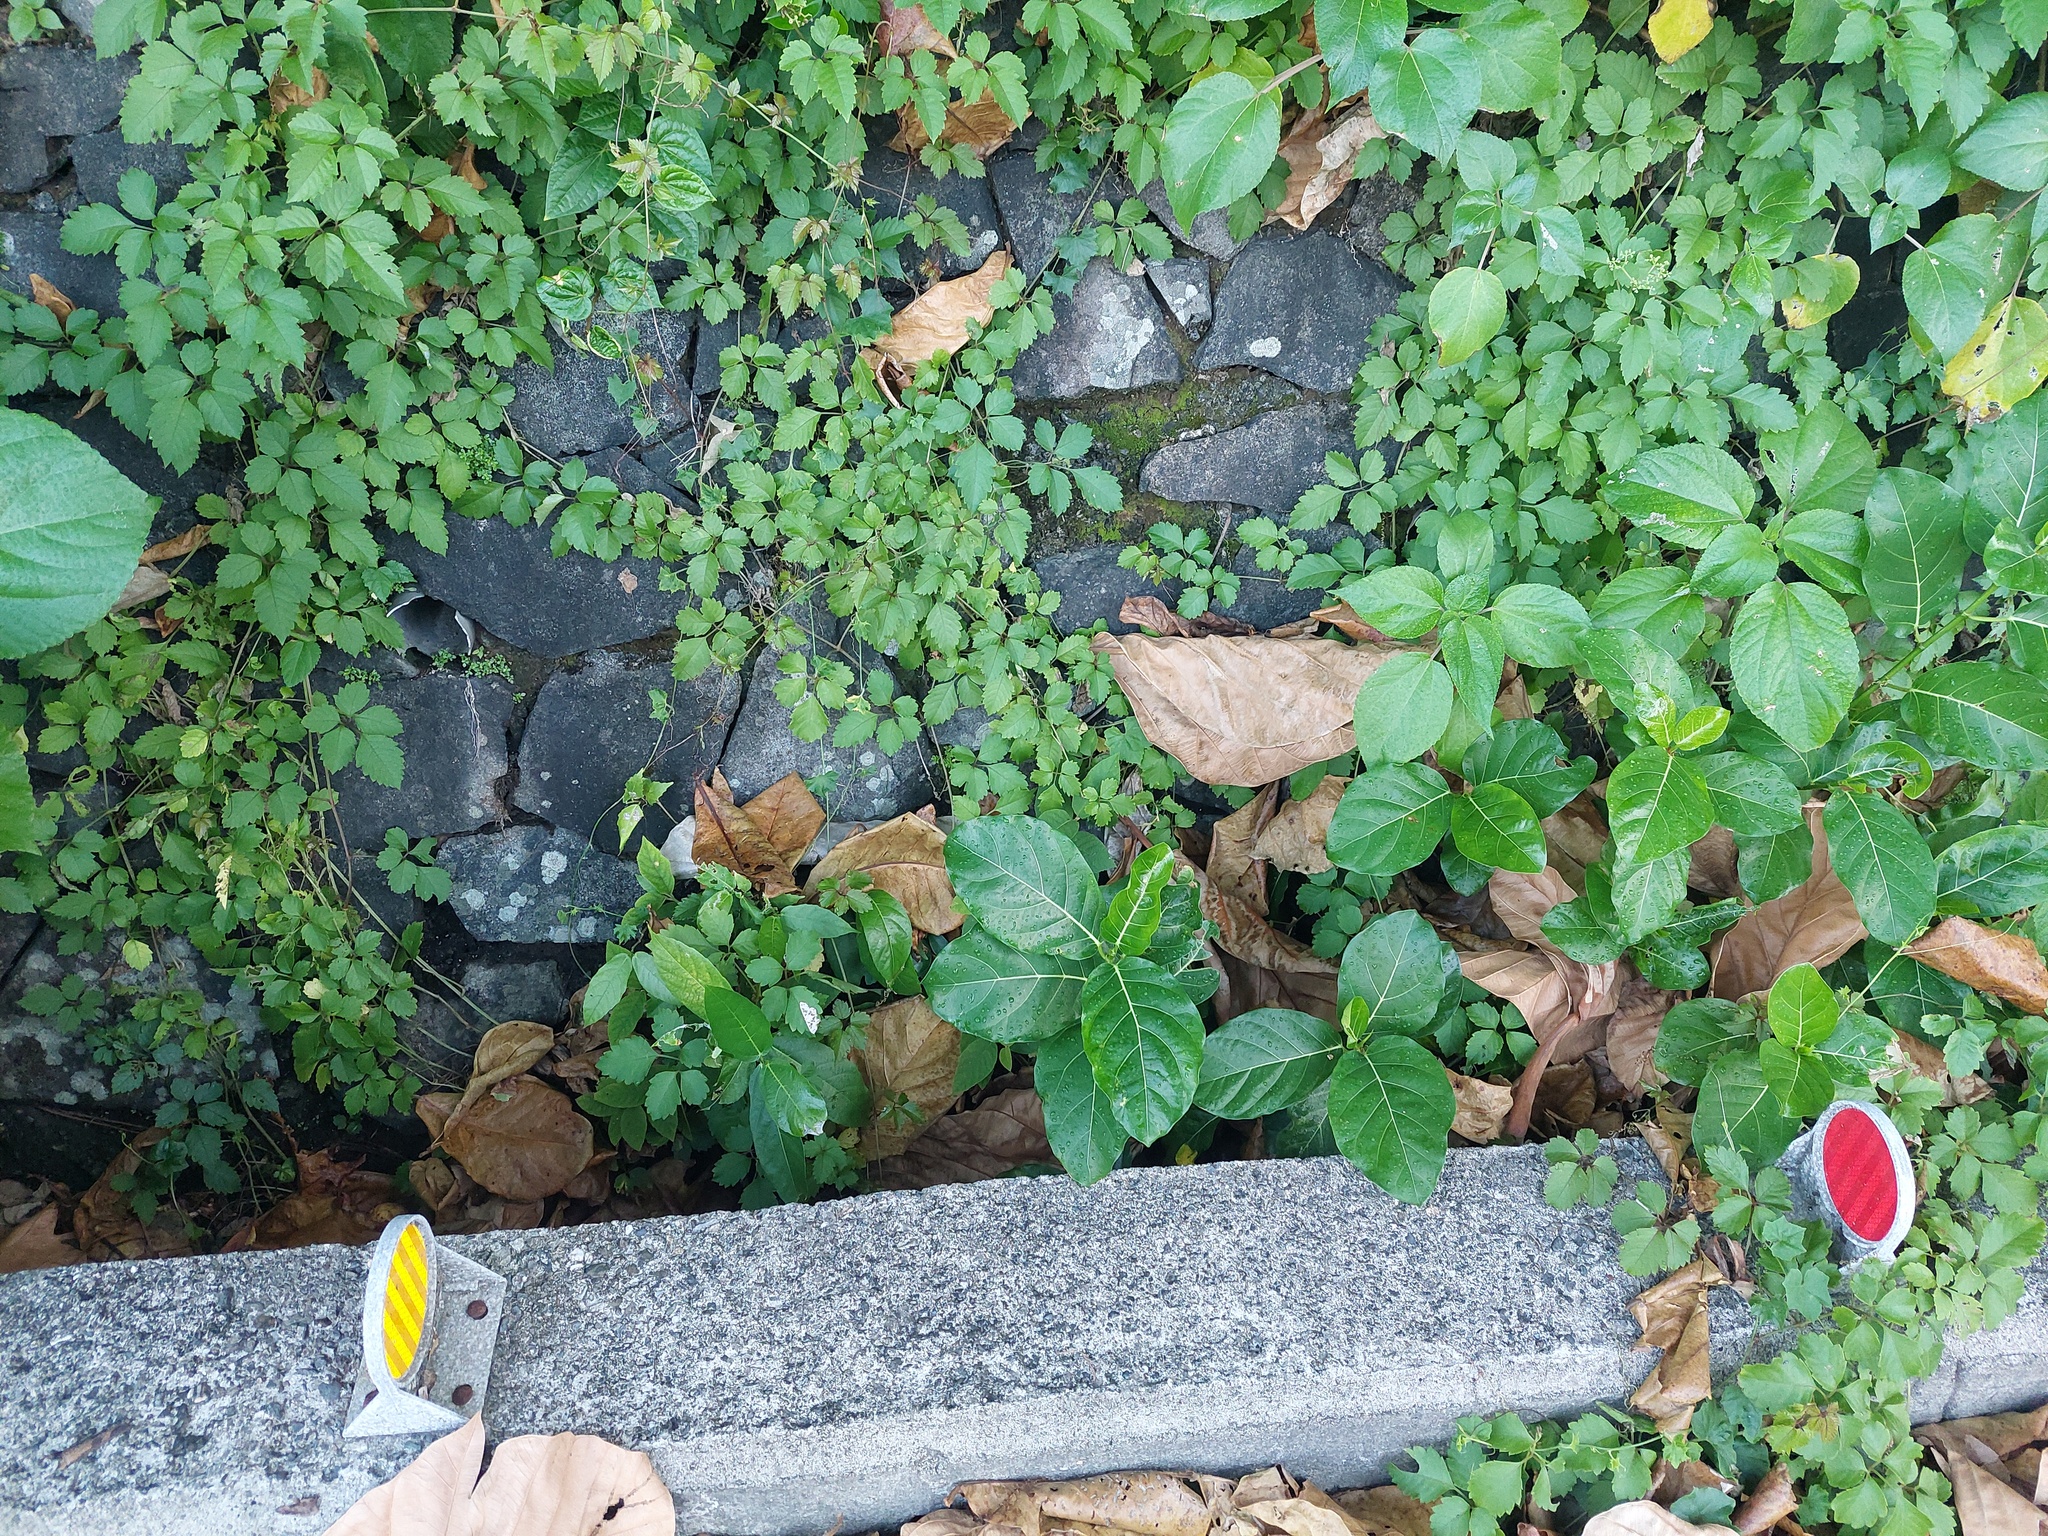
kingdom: Animalia
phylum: Arthropoda
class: Insecta
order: Lepidoptera
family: Geometridae
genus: Scopula
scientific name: Scopula divisaria
